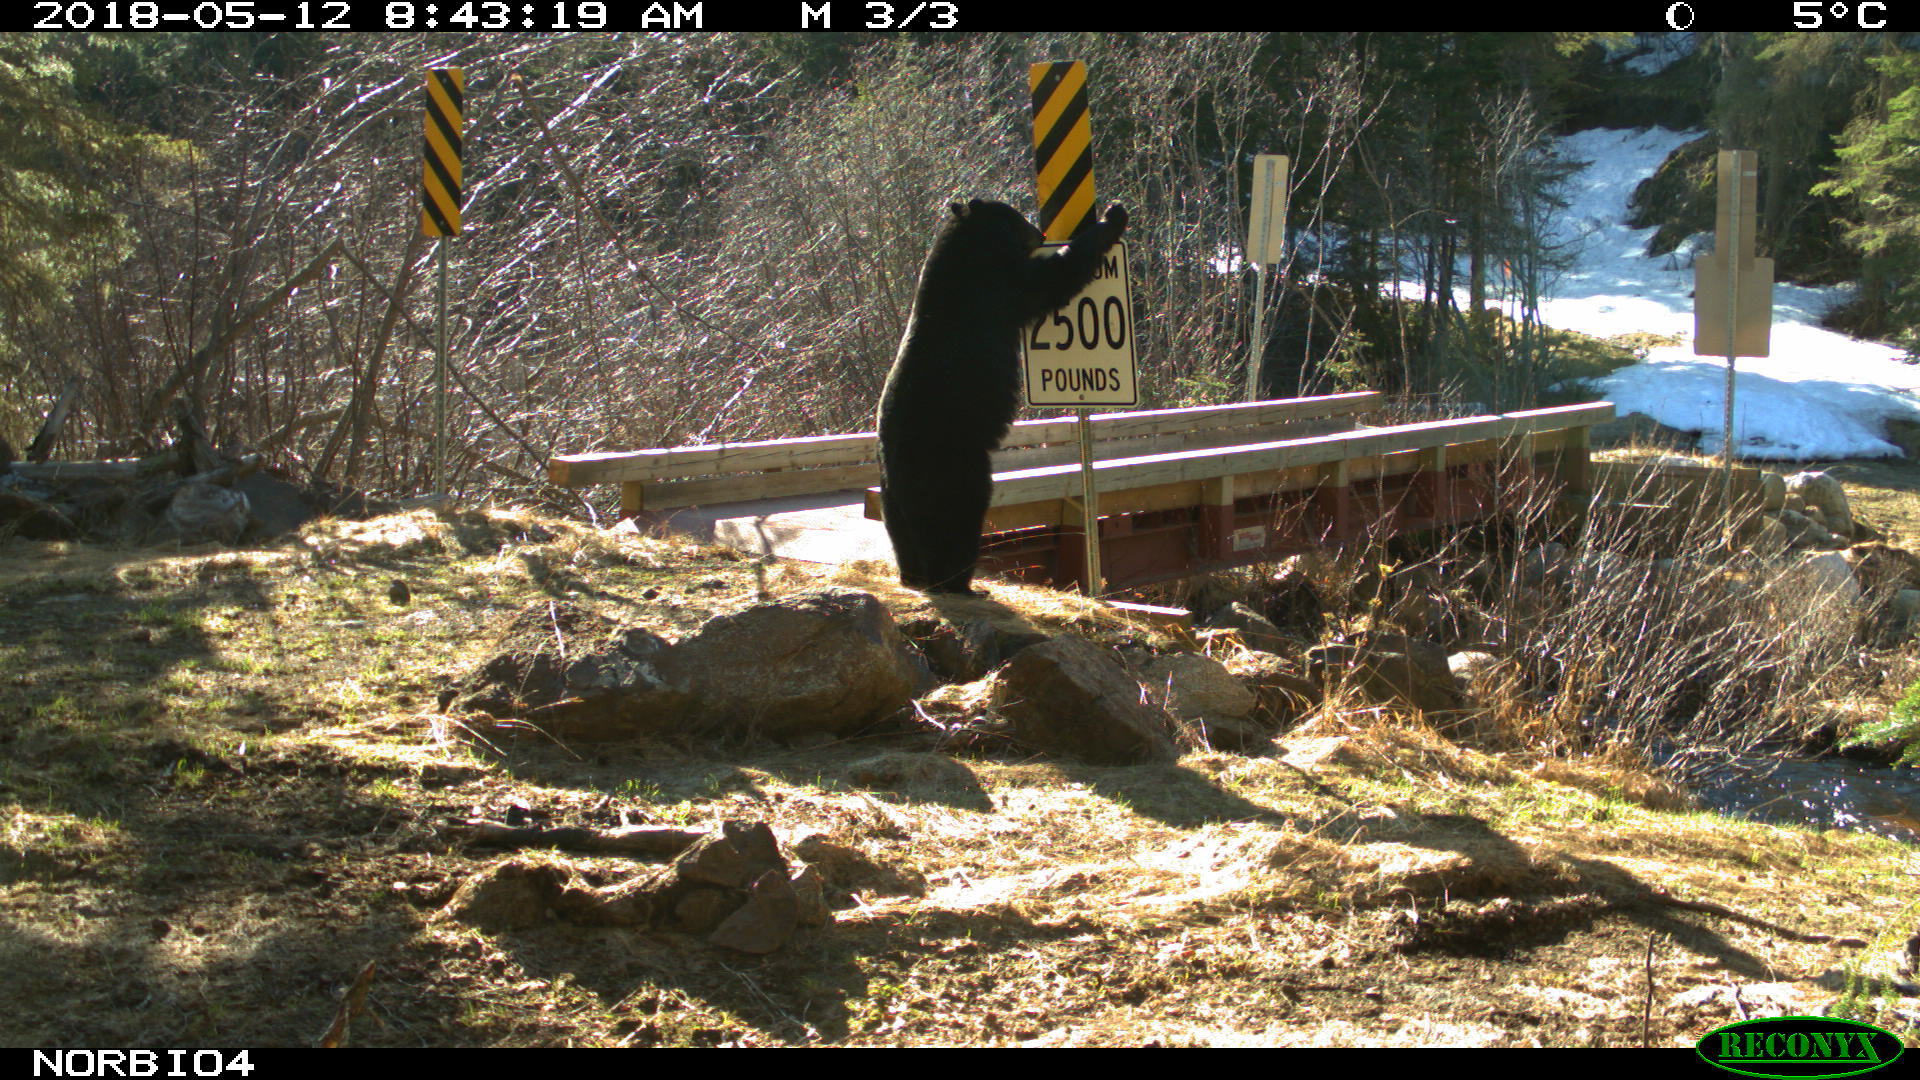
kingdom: Animalia
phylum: Chordata
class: Mammalia
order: Carnivora
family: Ursidae
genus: Ursus
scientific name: Ursus americanus
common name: American black bear
